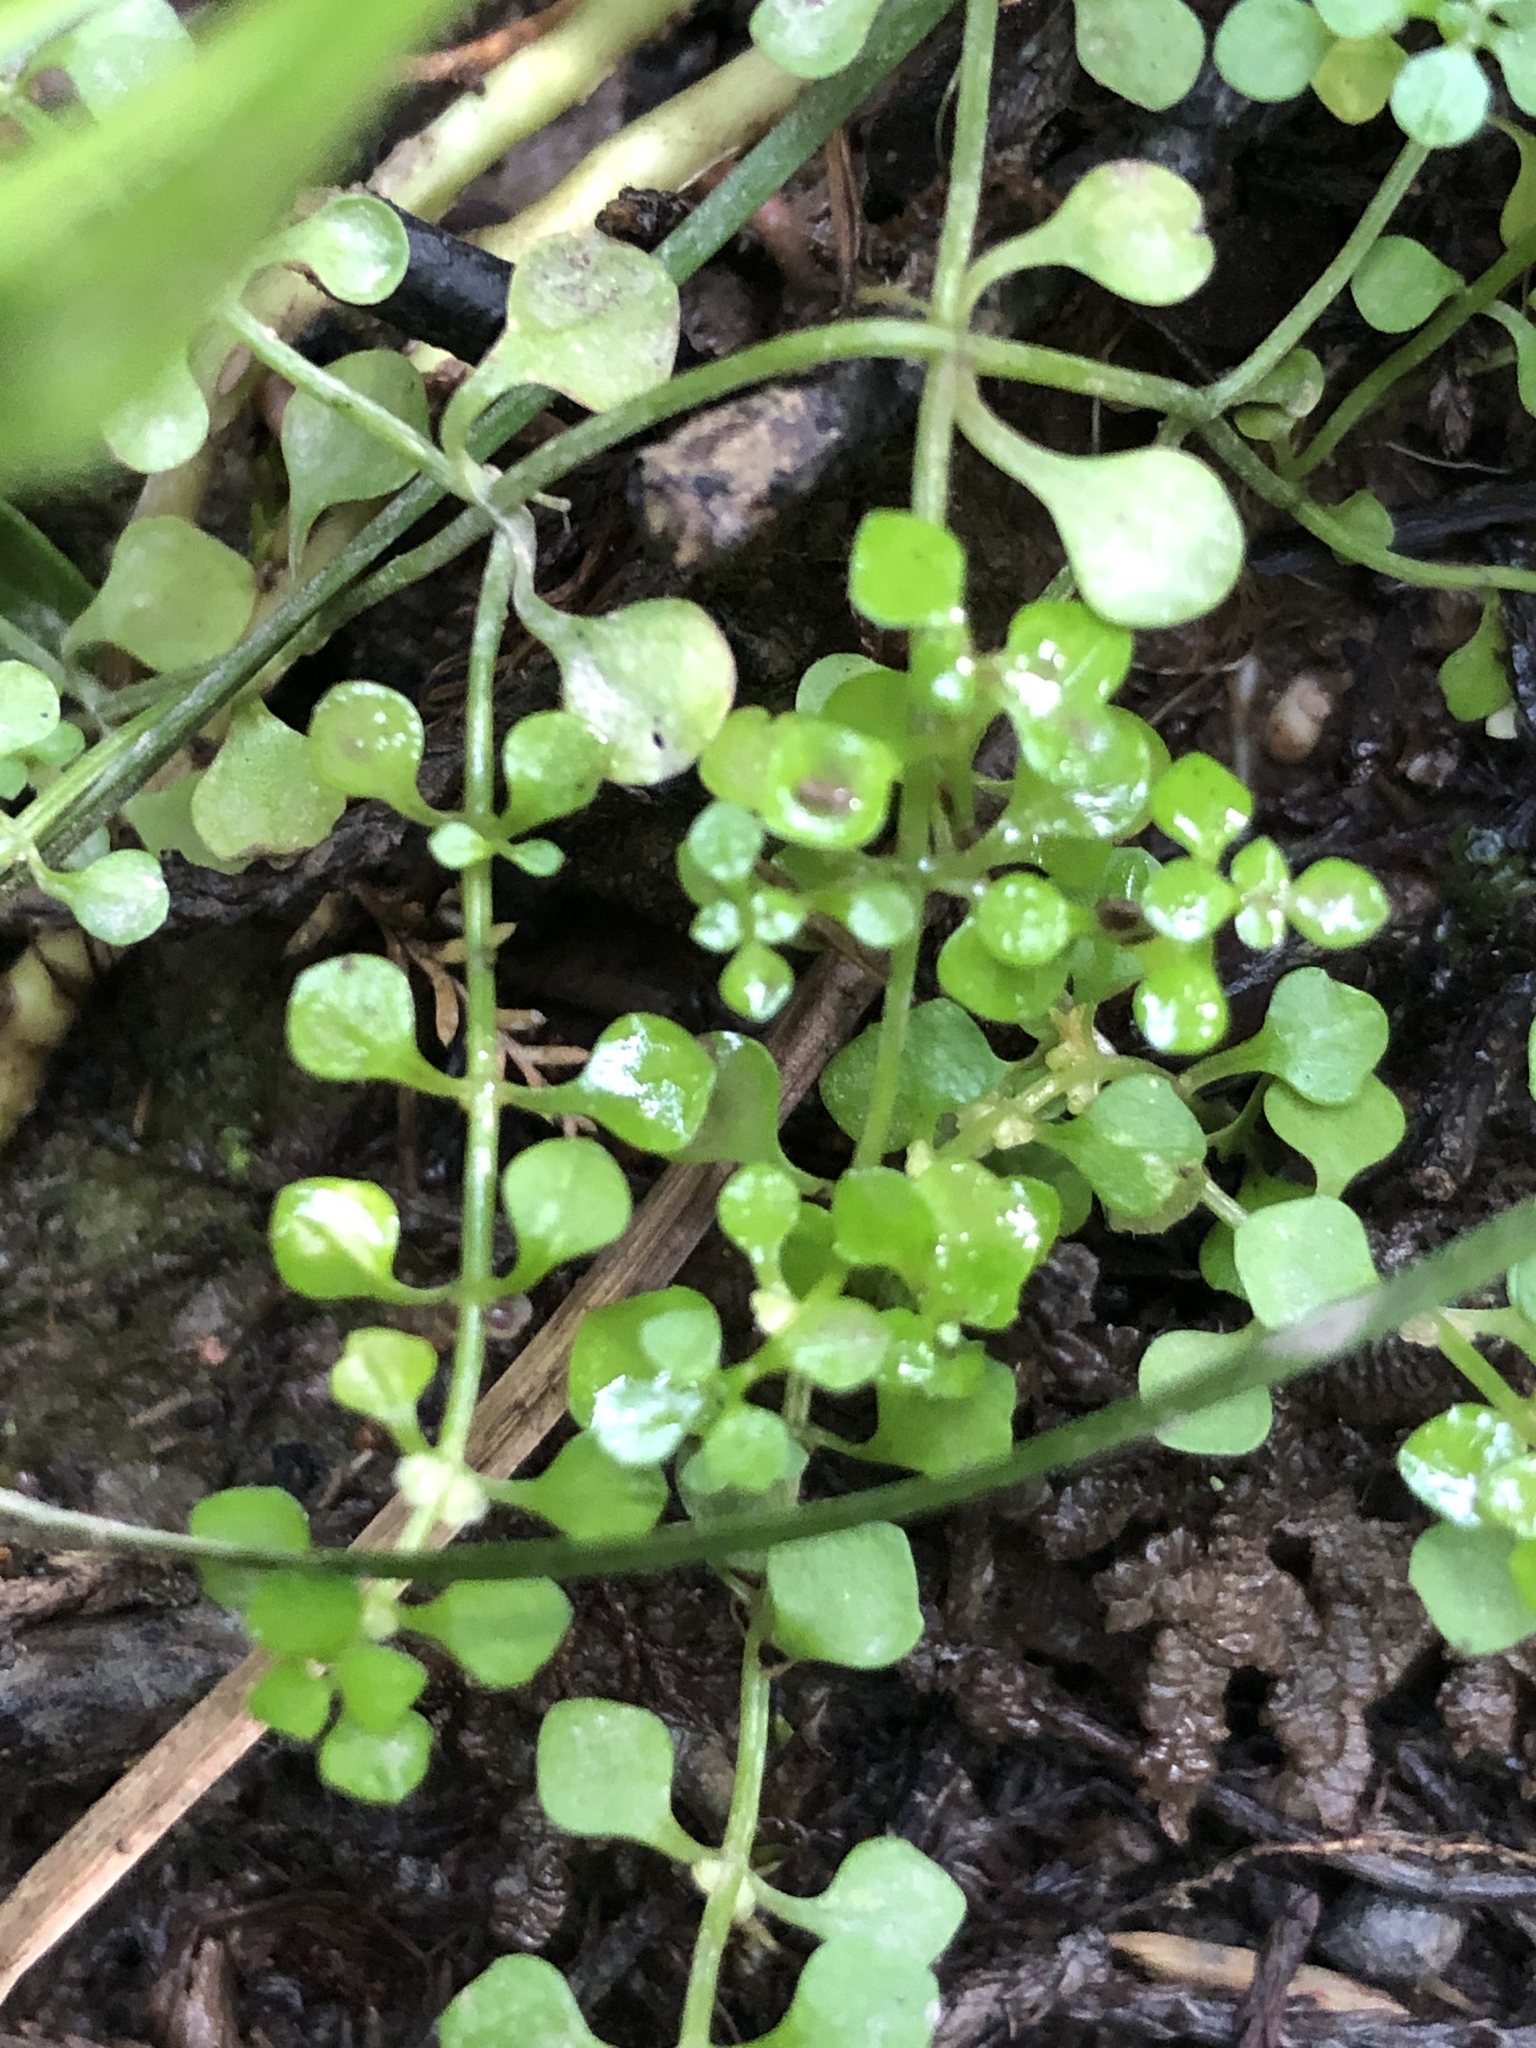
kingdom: Plantae
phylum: Tracheophyta
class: Magnoliopsida
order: Caryophyllales
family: Caryophyllaceae
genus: Stellaria
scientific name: Stellaria parviflora
